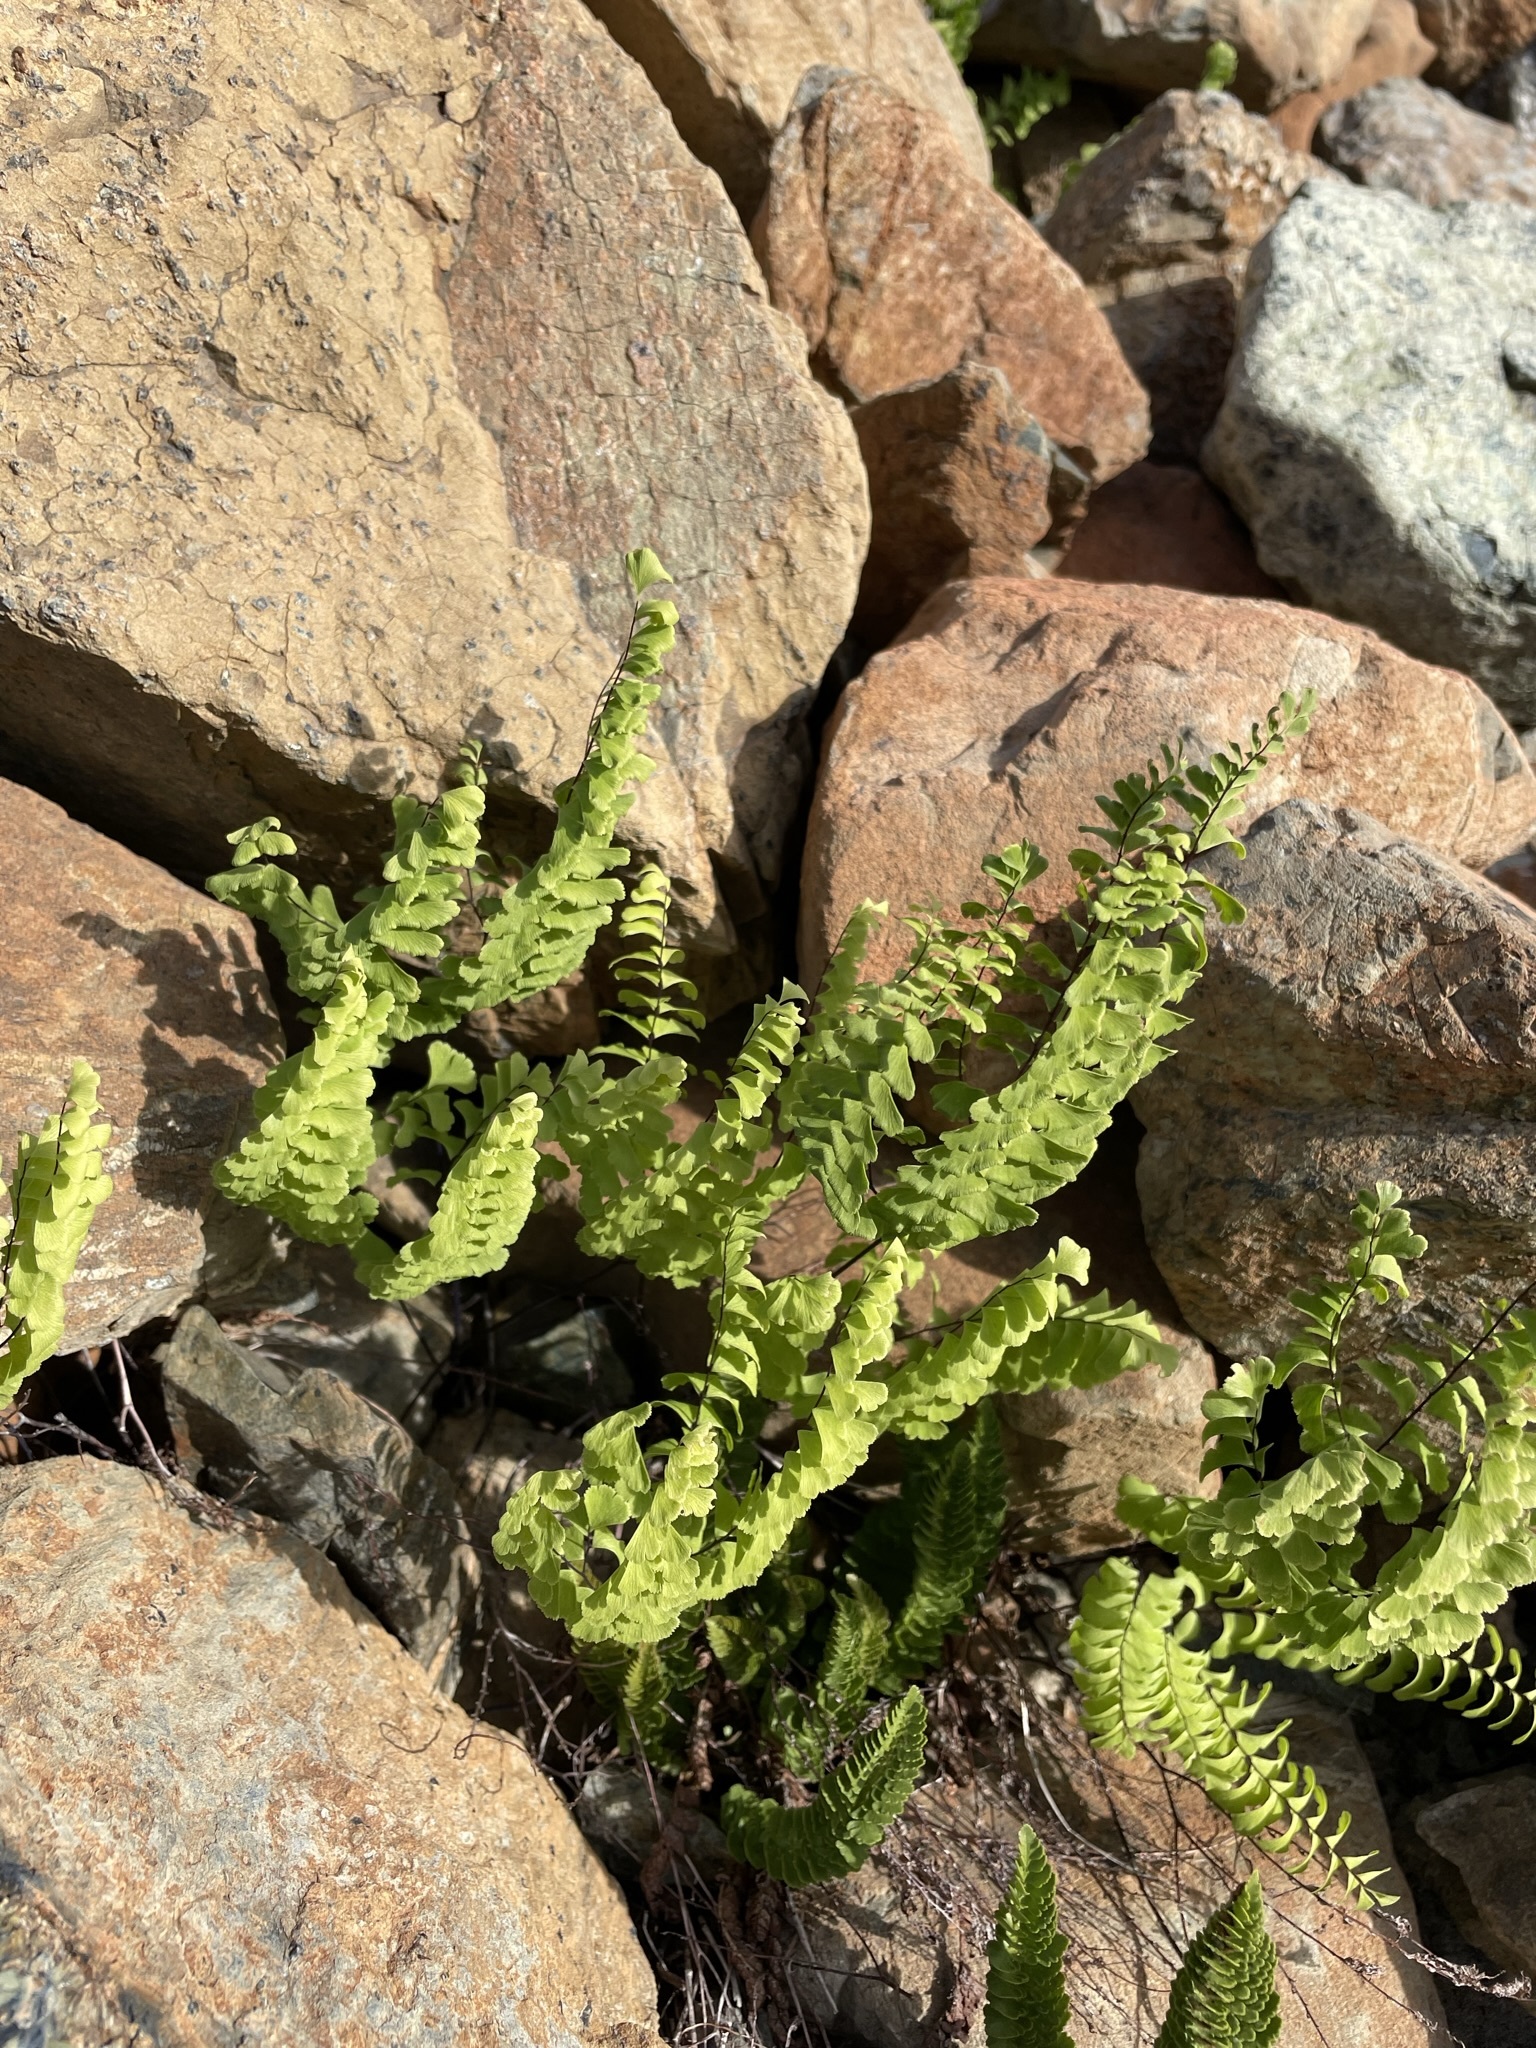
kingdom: Plantae
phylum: Tracheophyta
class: Polypodiopsida
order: Polypodiales
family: Pteridaceae
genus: Adiantum
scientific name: Adiantum aleuticum
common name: Aleutian maidenhair fern
